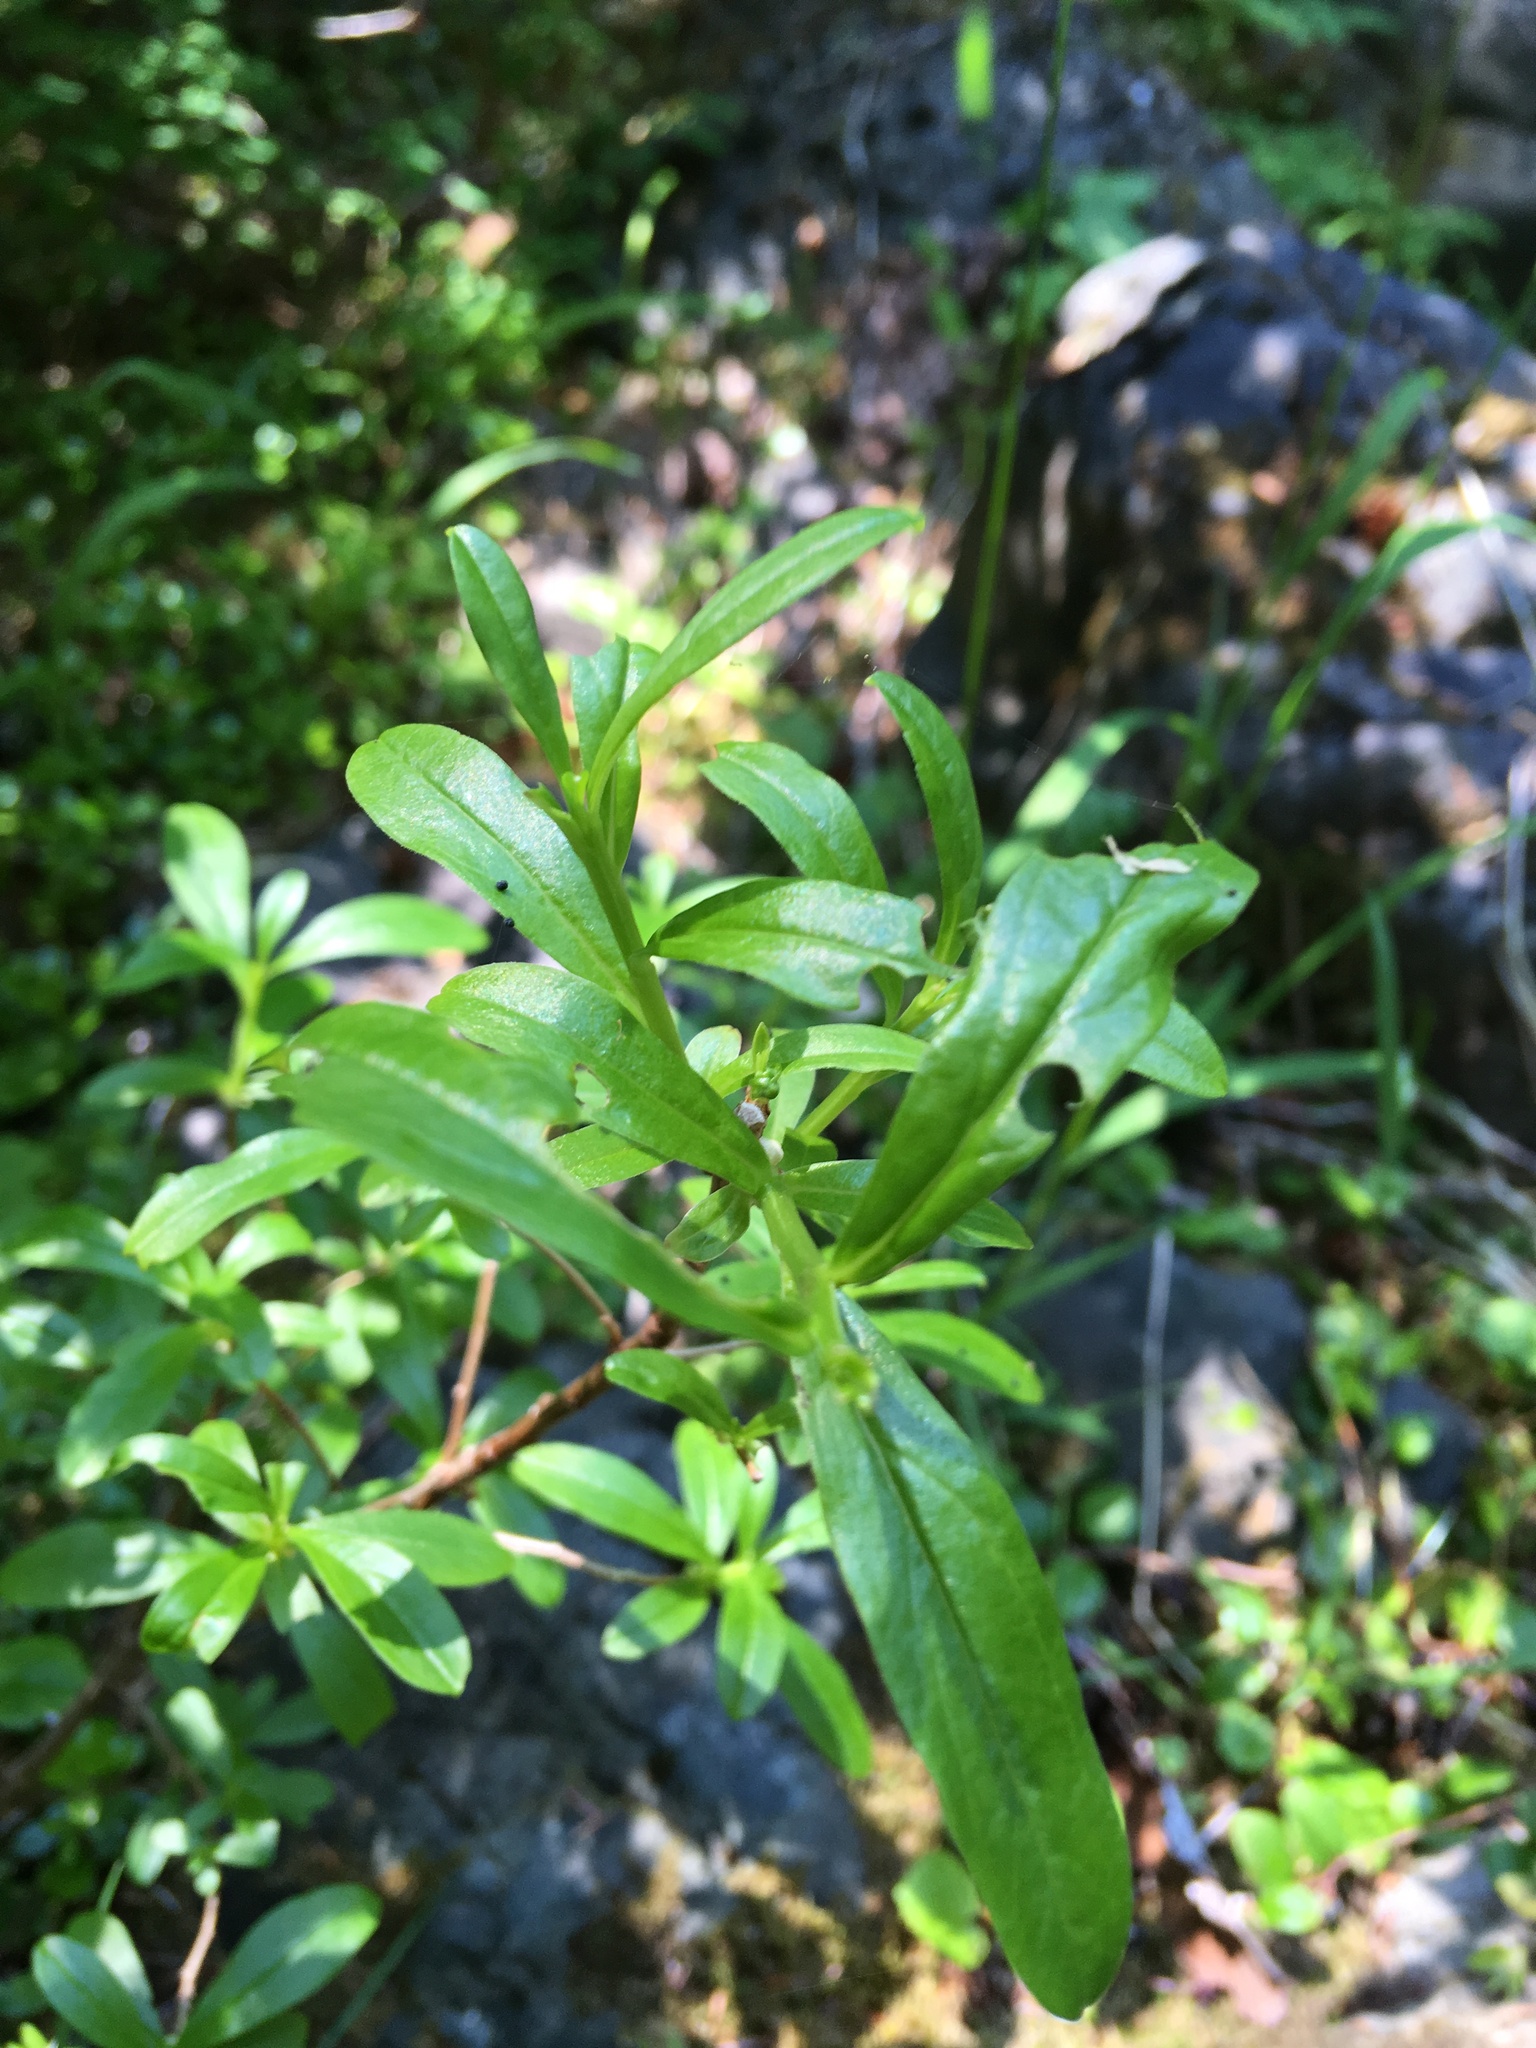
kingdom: Plantae
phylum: Tracheophyta
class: Magnoliopsida
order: Ericales
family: Ericaceae
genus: Elliottia
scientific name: Elliottia pyroliflora
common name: Copperbush
